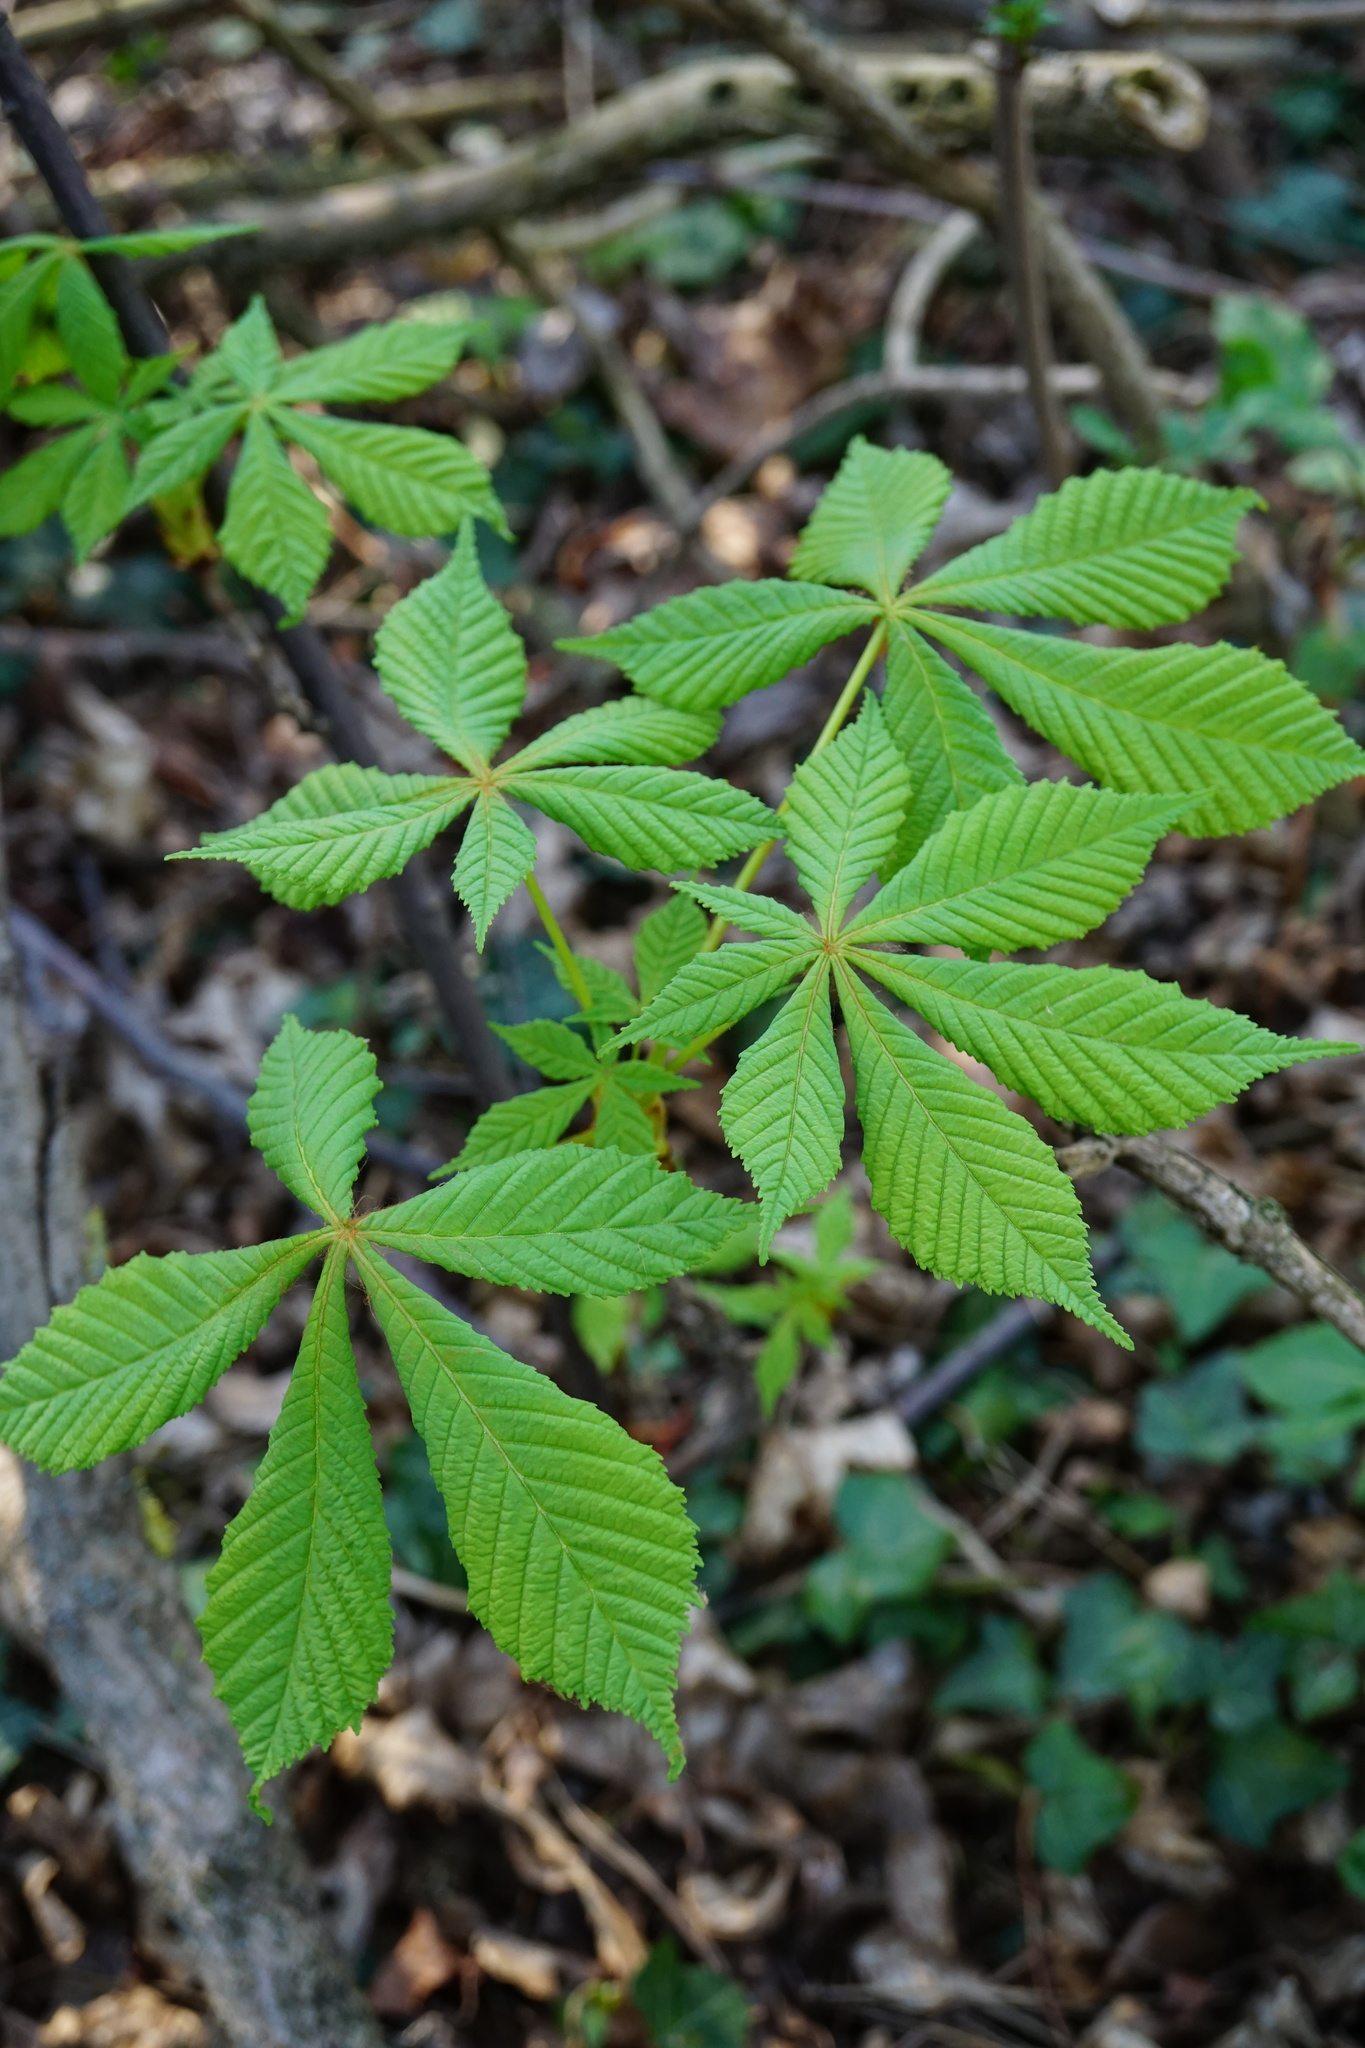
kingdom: Plantae
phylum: Tracheophyta
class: Magnoliopsida
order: Sapindales
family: Sapindaceae
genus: Aesculus
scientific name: Aesculus hippocastanum
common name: Horse-chestnut
